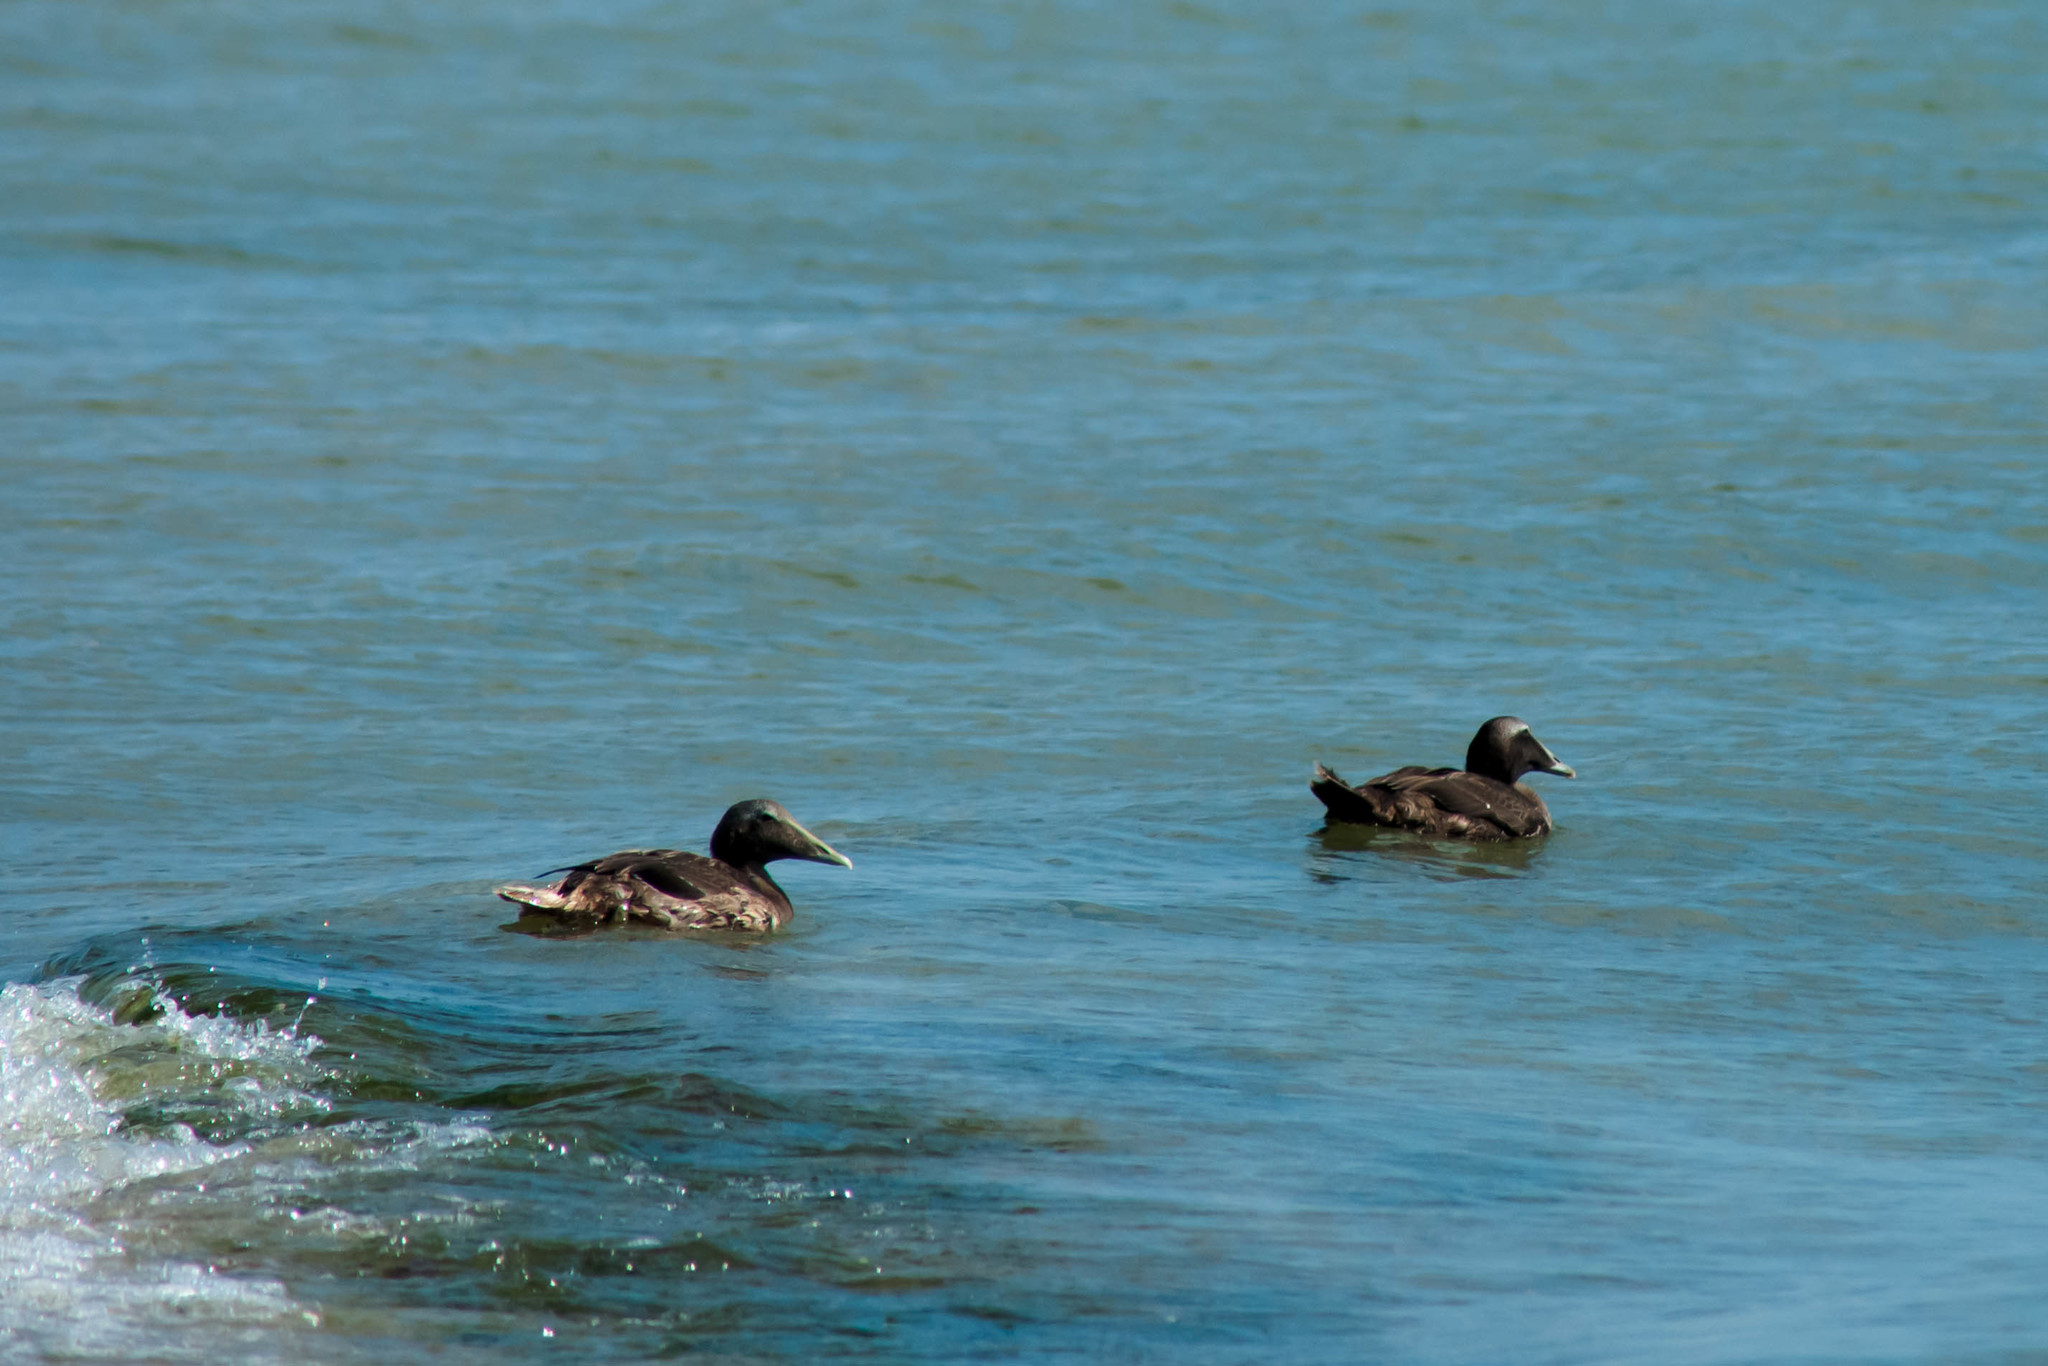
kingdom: Animalia
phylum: Chordata
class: Aves
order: Anseriformes
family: Anatidae
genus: Somateria
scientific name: Somateria mollissima
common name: Common eider
